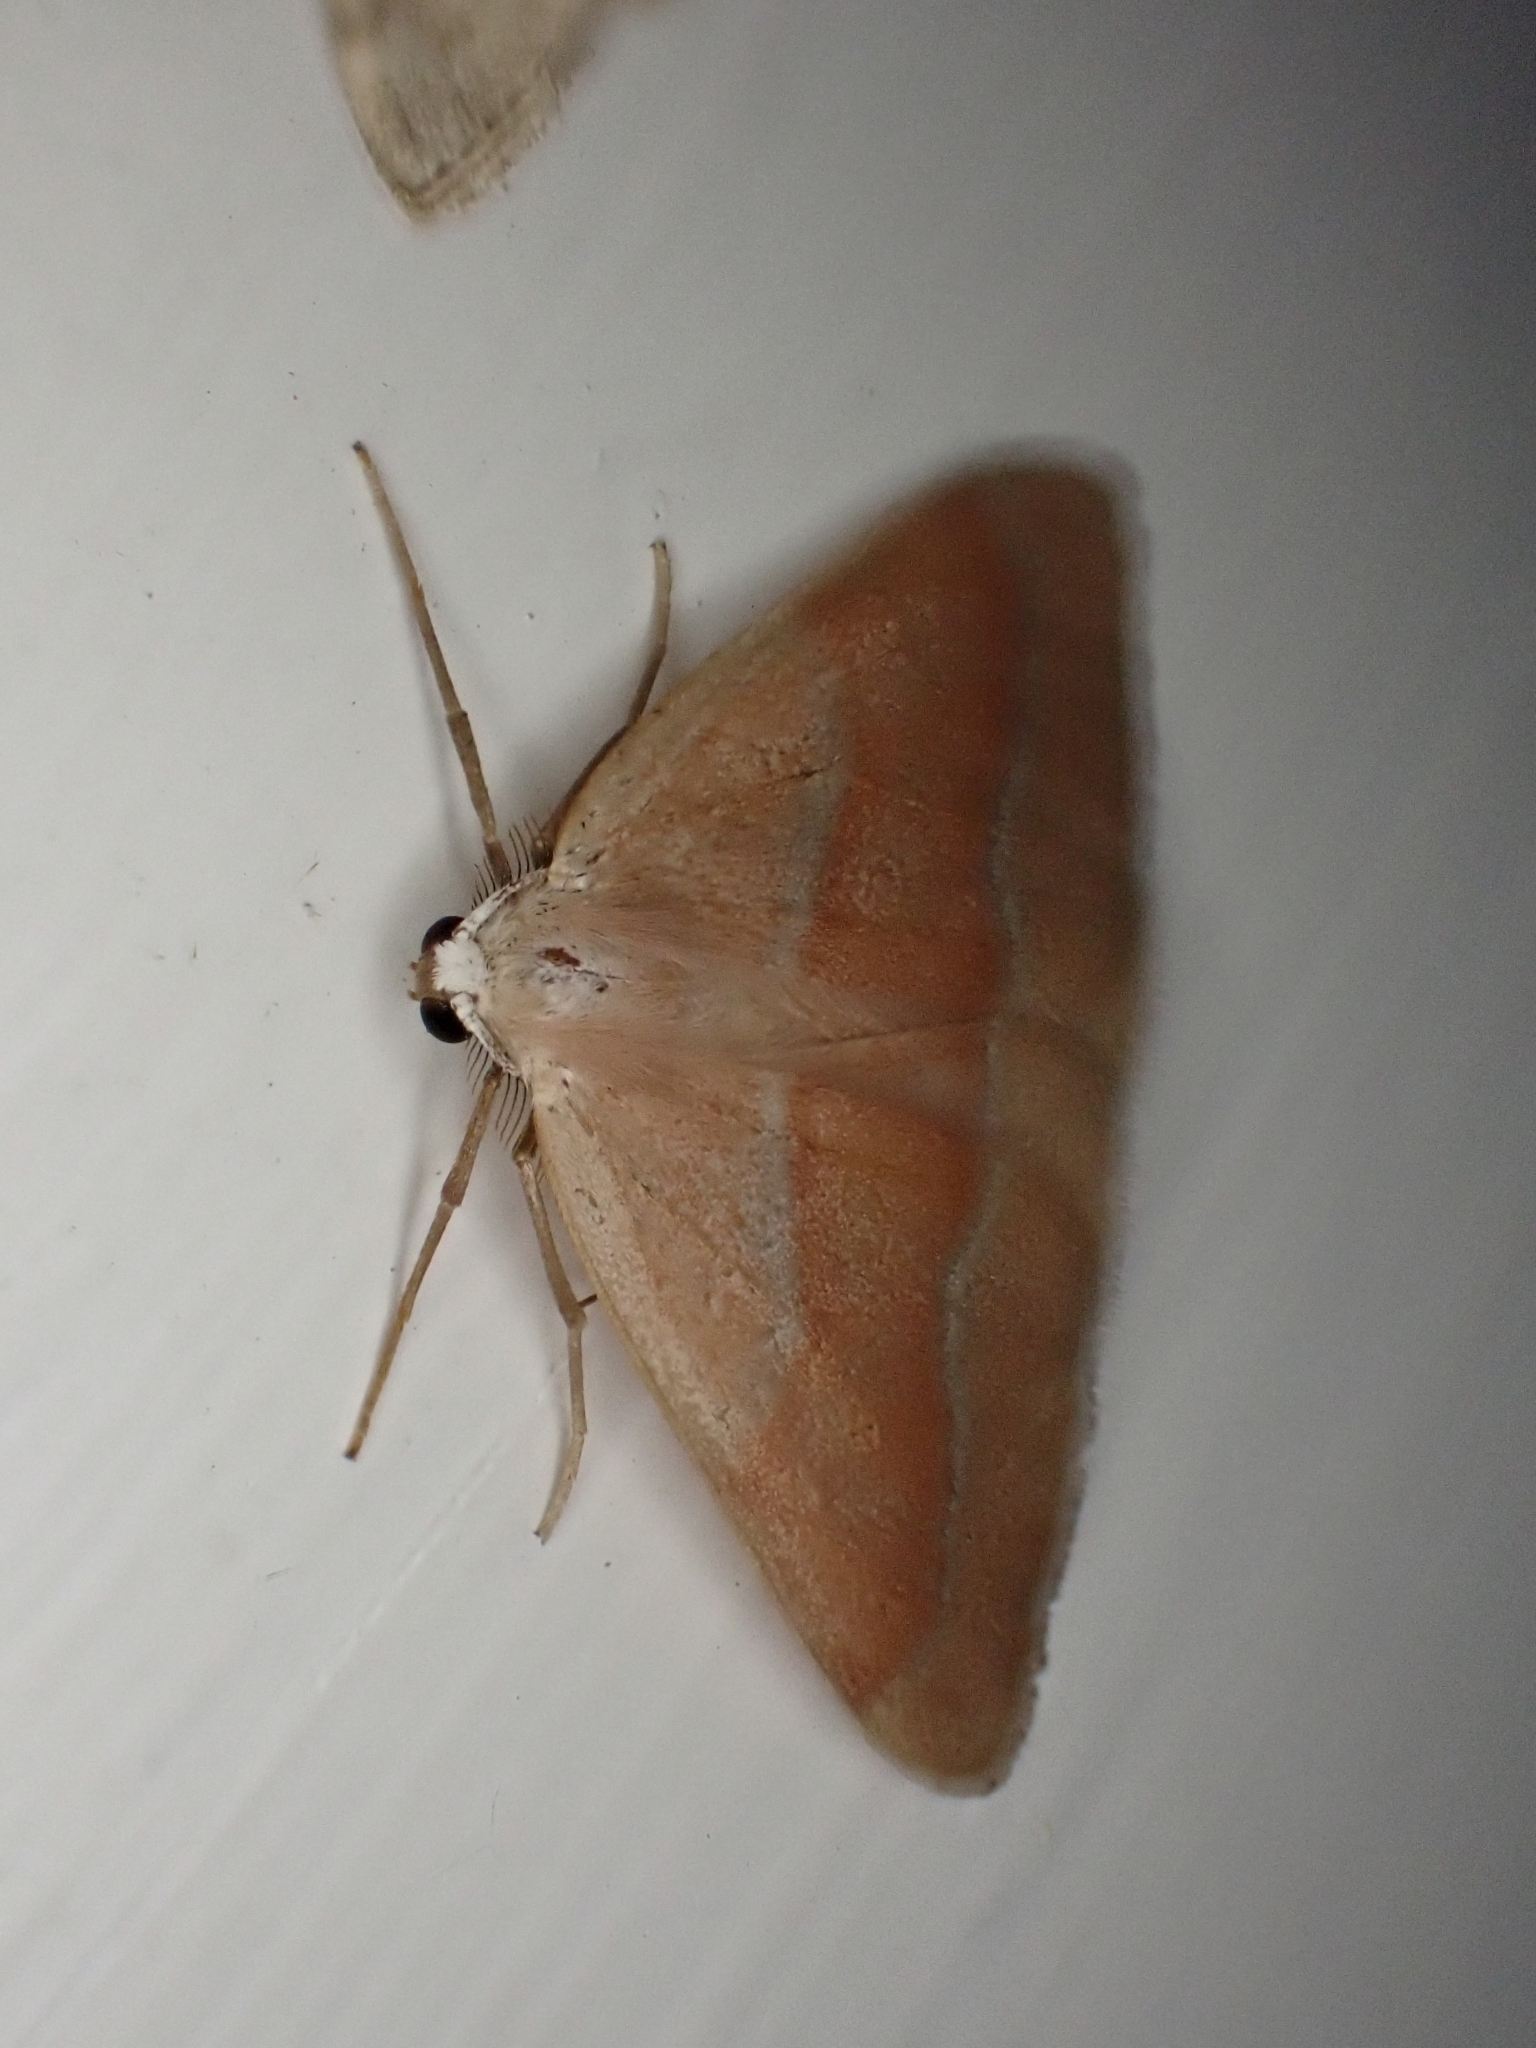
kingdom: Animalia
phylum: Arthropoda
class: Insecta
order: Lepidoptera
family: Geometridae
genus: Hylaea
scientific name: Hylaea fasciaria
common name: Barred red
